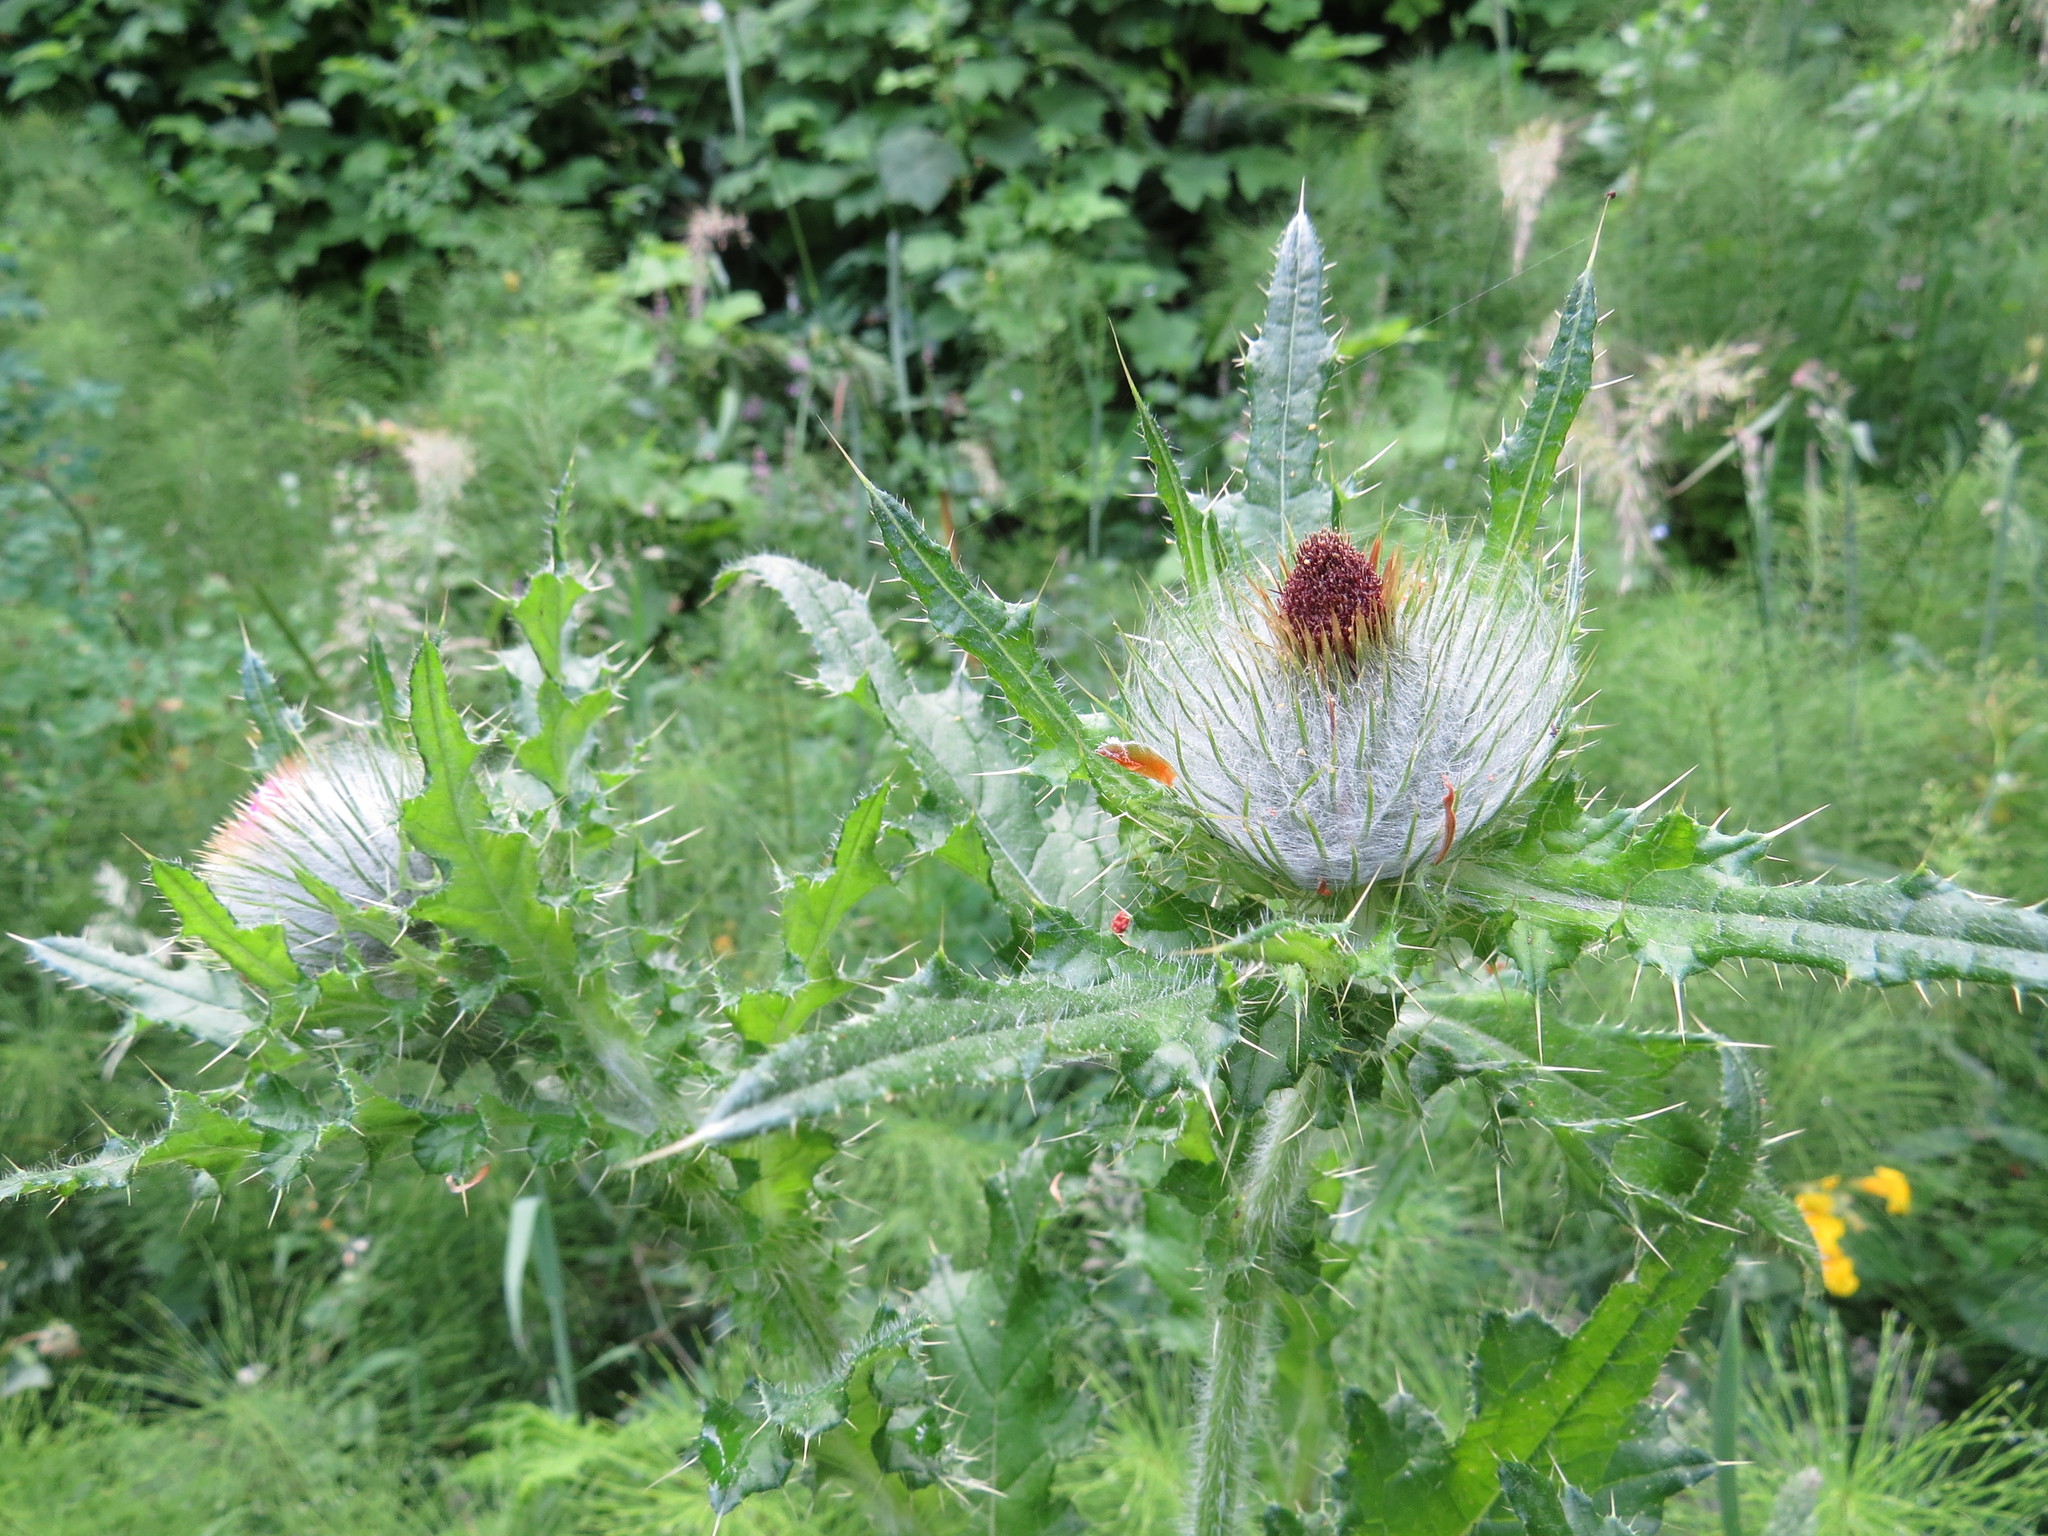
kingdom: Plantae
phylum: Tracheophyta
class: Magnoliopsida
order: Asterales
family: Asteraceae
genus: Cirsium
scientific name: Cirsium brevistylum
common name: Indian thistle
